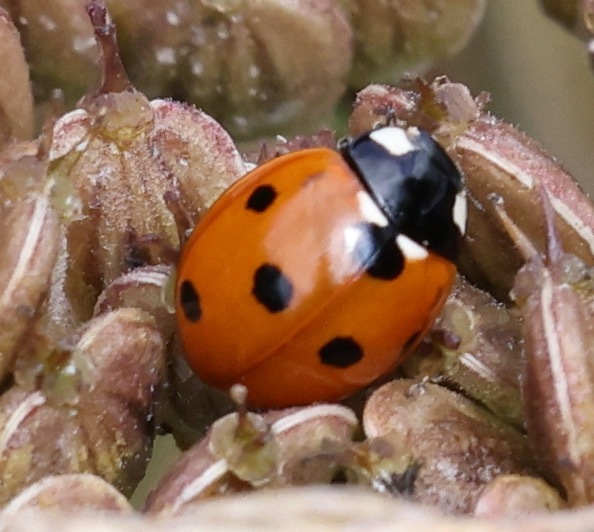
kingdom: Animalia
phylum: Arthropoda
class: Insecta
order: Coleoptera
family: Coccinellidae
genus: Coccinella
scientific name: Coccinella septempunctata
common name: Sevenspotted lady beetle
